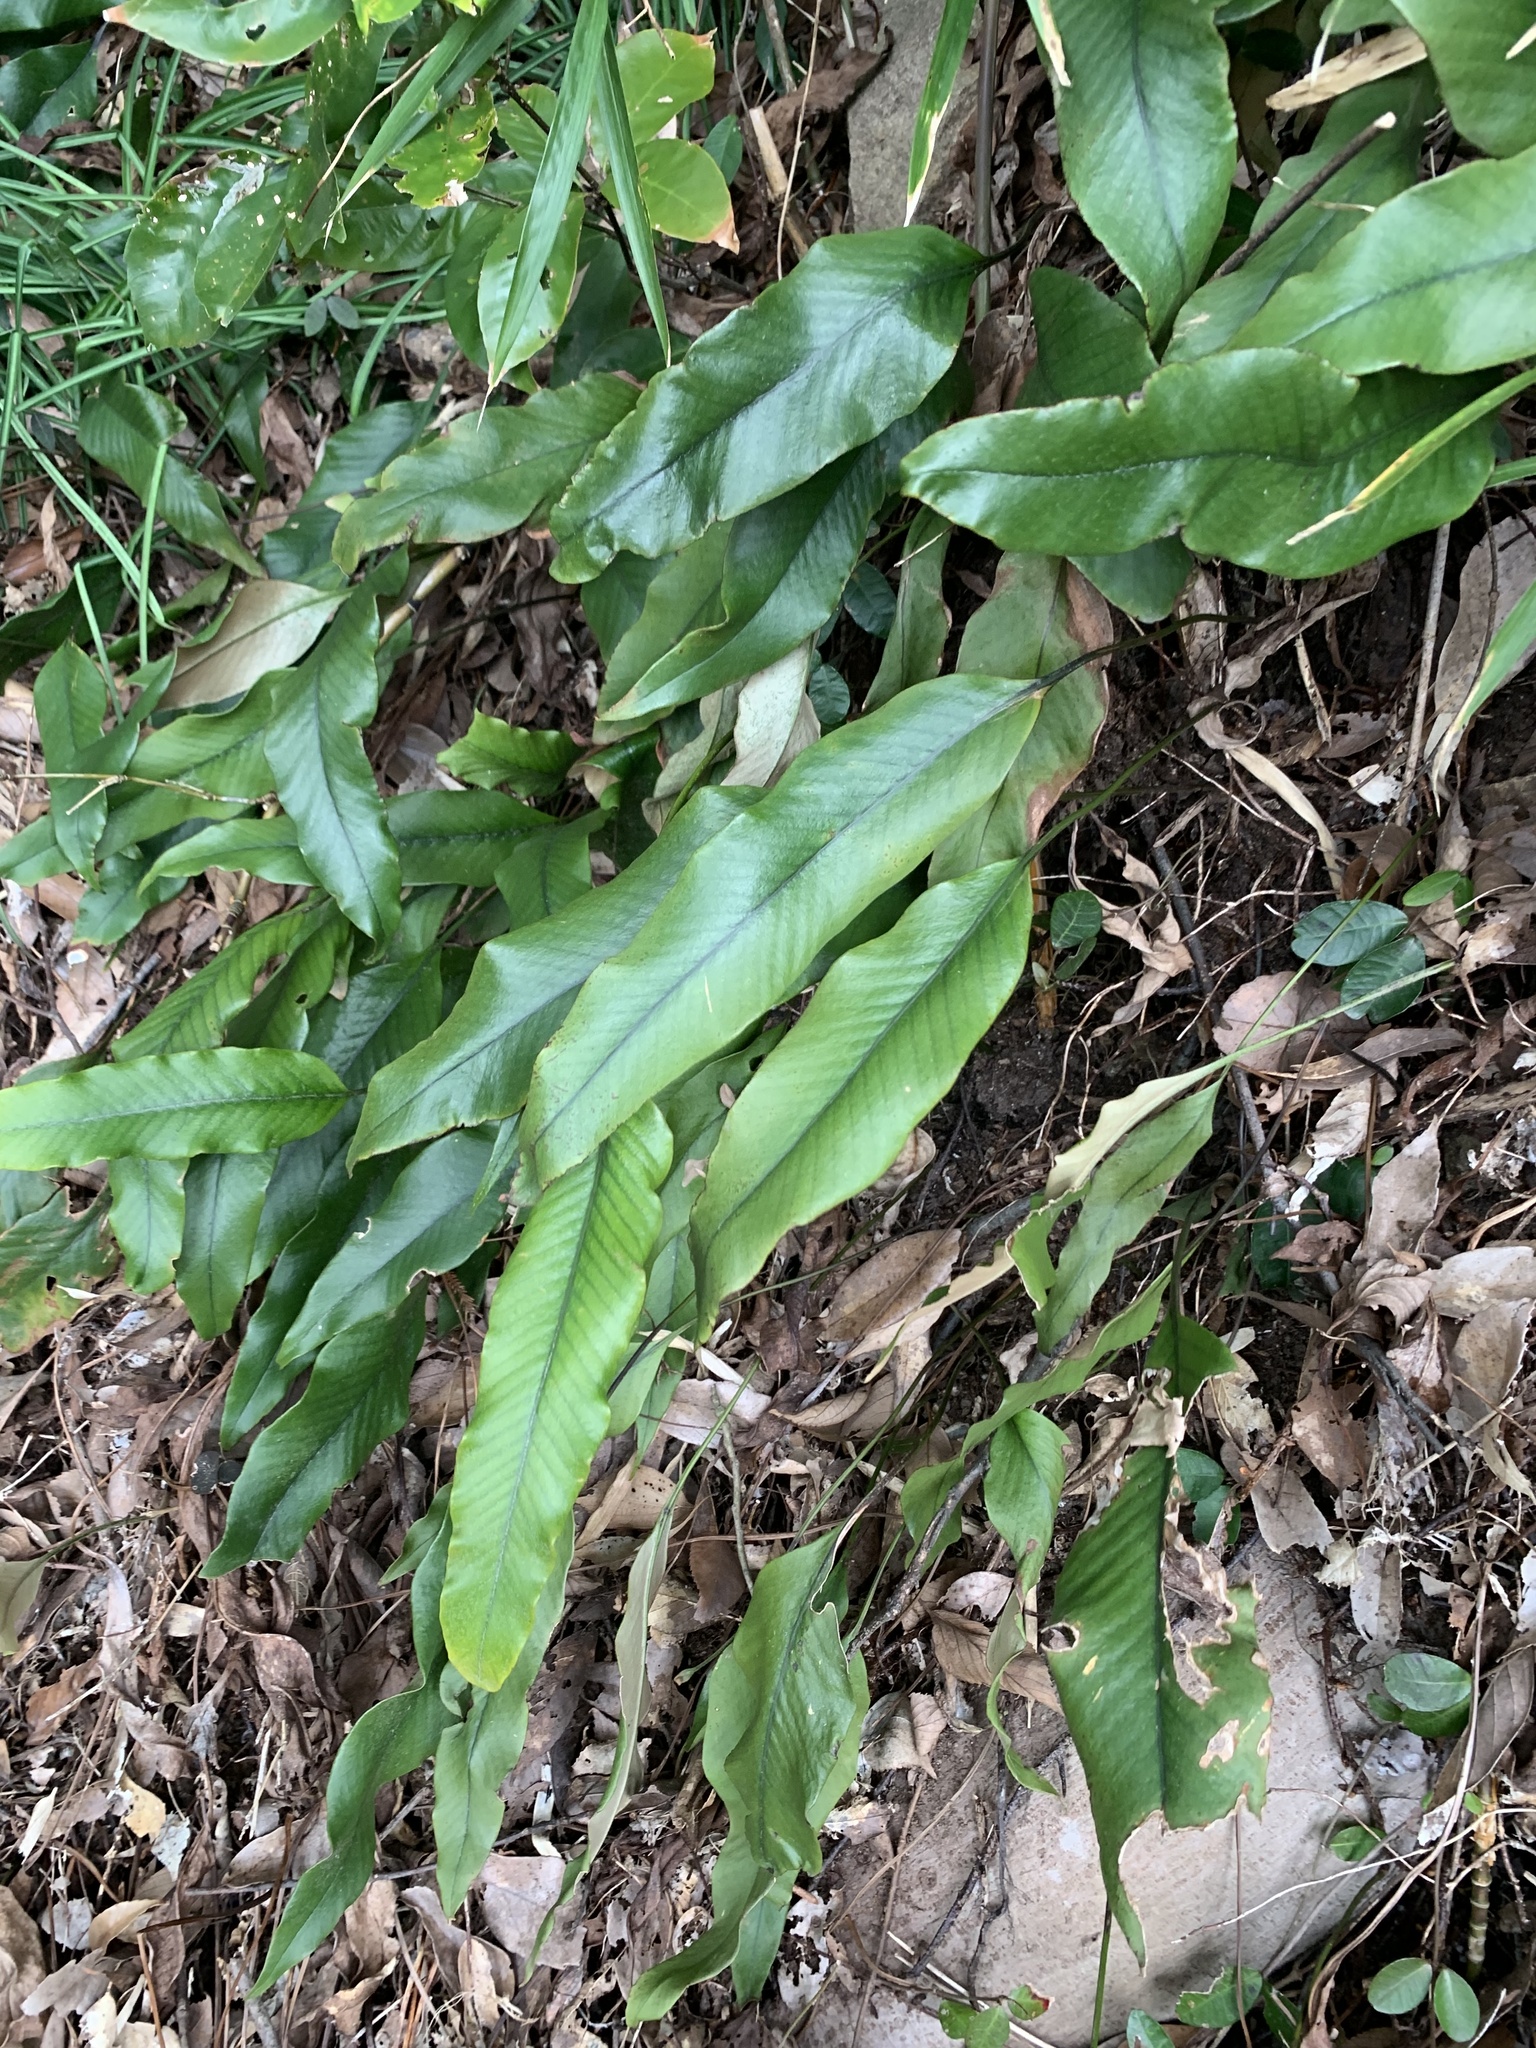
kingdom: Plantae
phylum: Tracheophyta
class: Polypodiopsida
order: Polypodiales
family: Polypodiaceae
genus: Pyrrosia
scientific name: Pyrrosia lingua
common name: Felt fern
